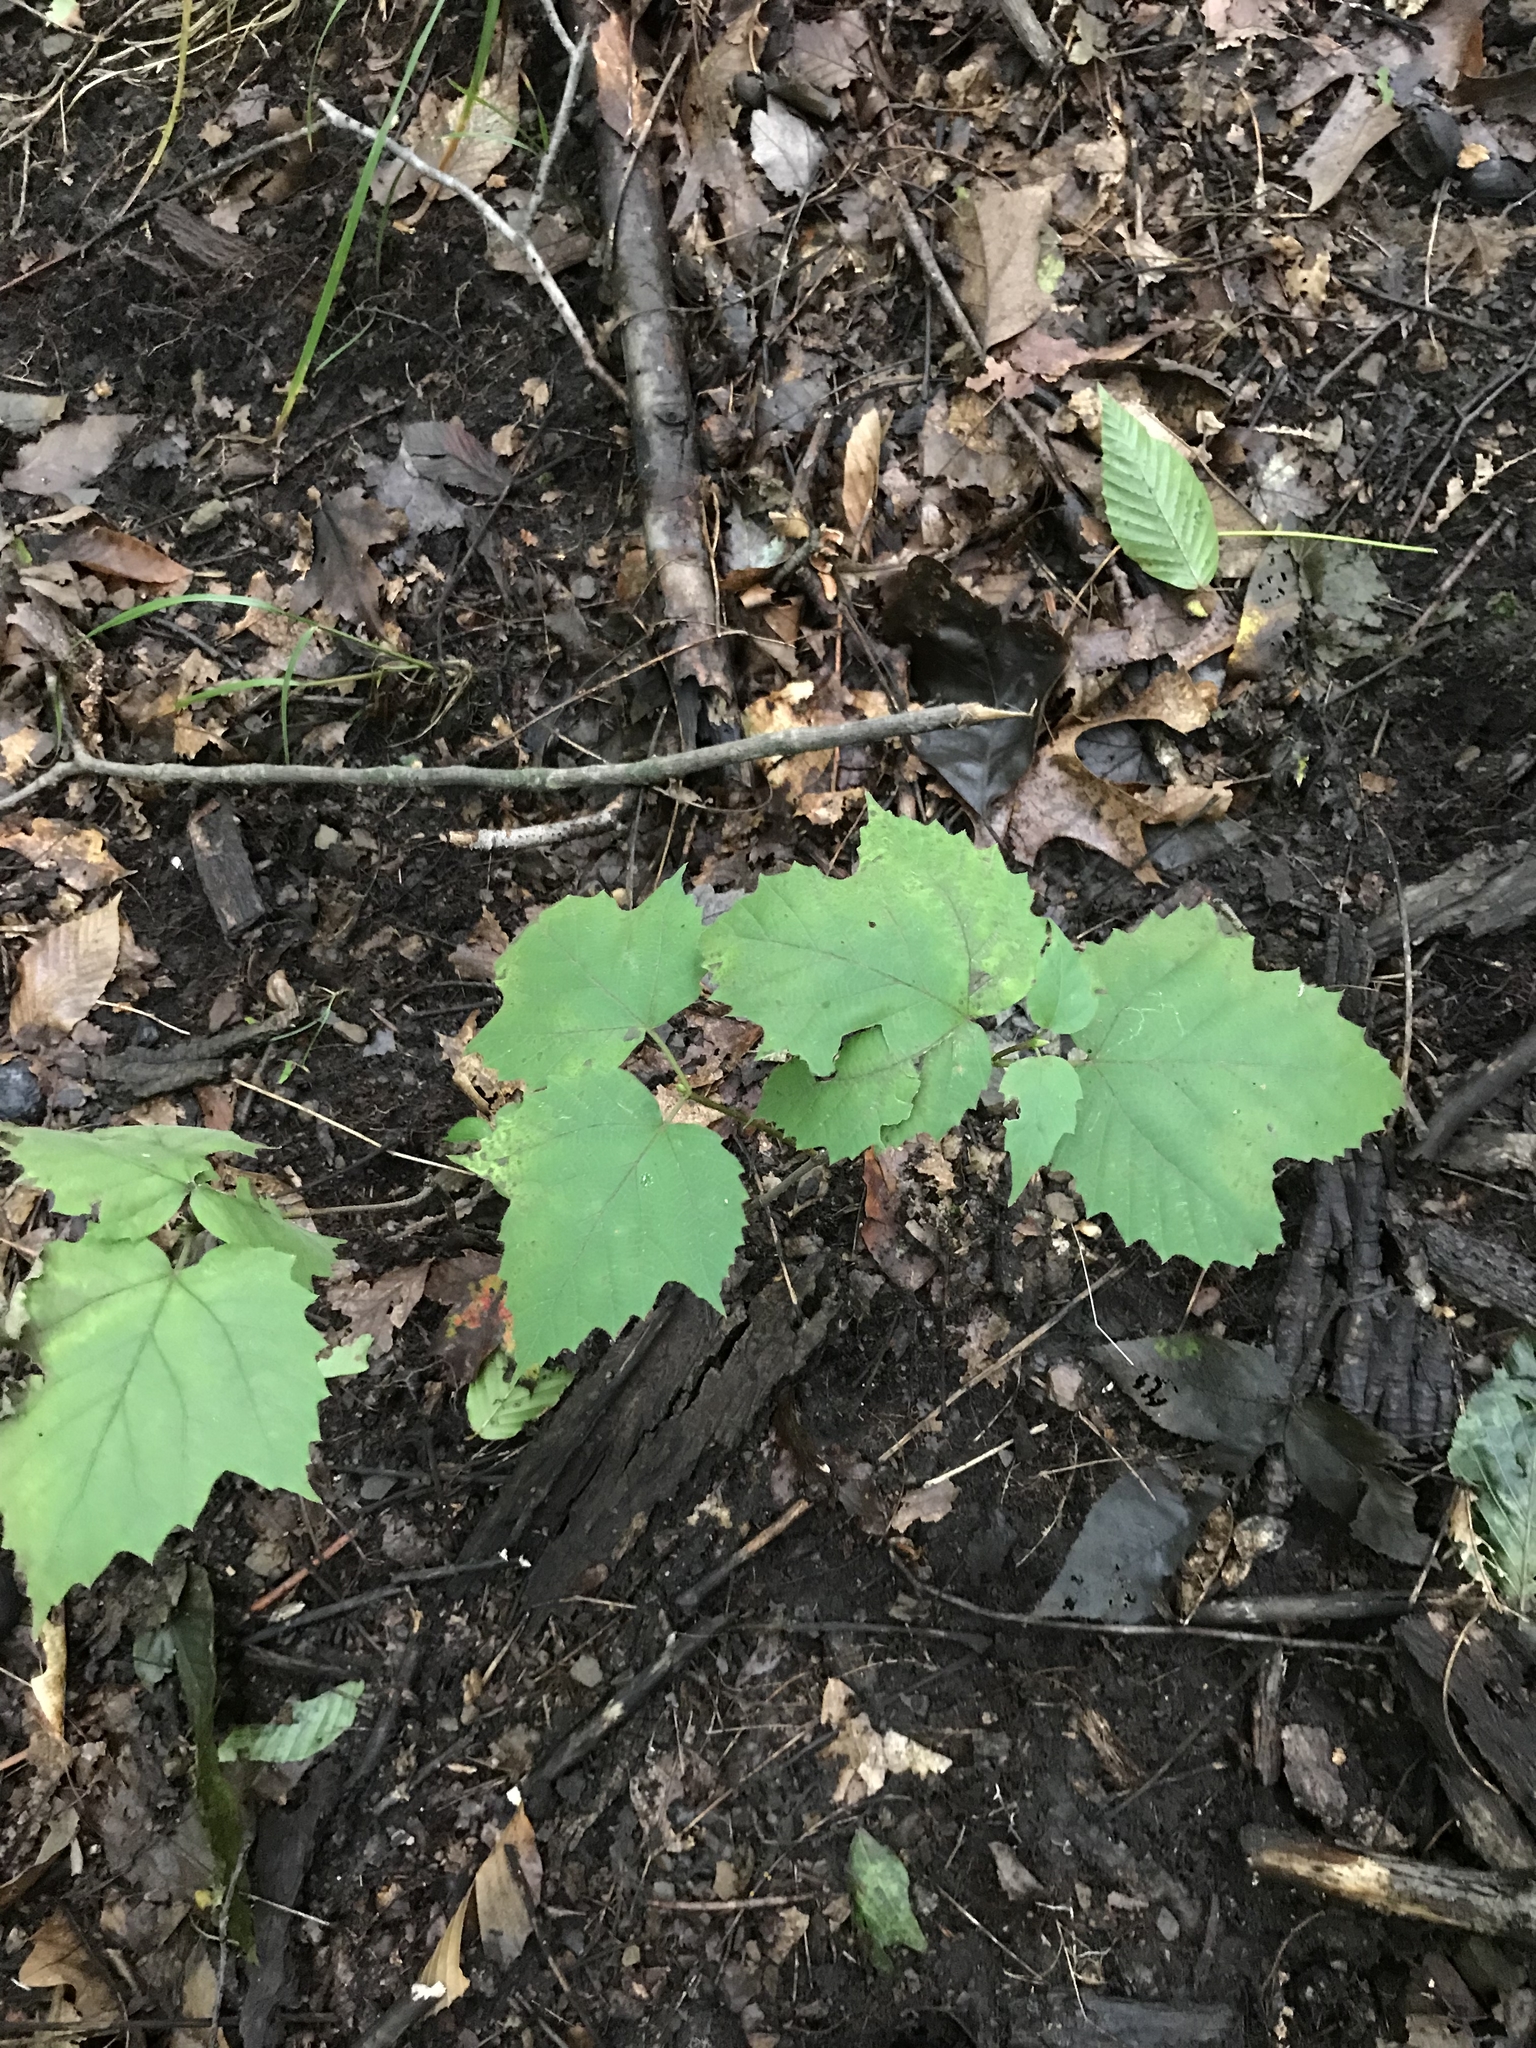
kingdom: Plantae
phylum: Tracheophyta
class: Magnoliopsida
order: Dipsacales
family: Viburnaceae
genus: Viburnum
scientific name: Viburnum acerifolium
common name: Dockmackie
